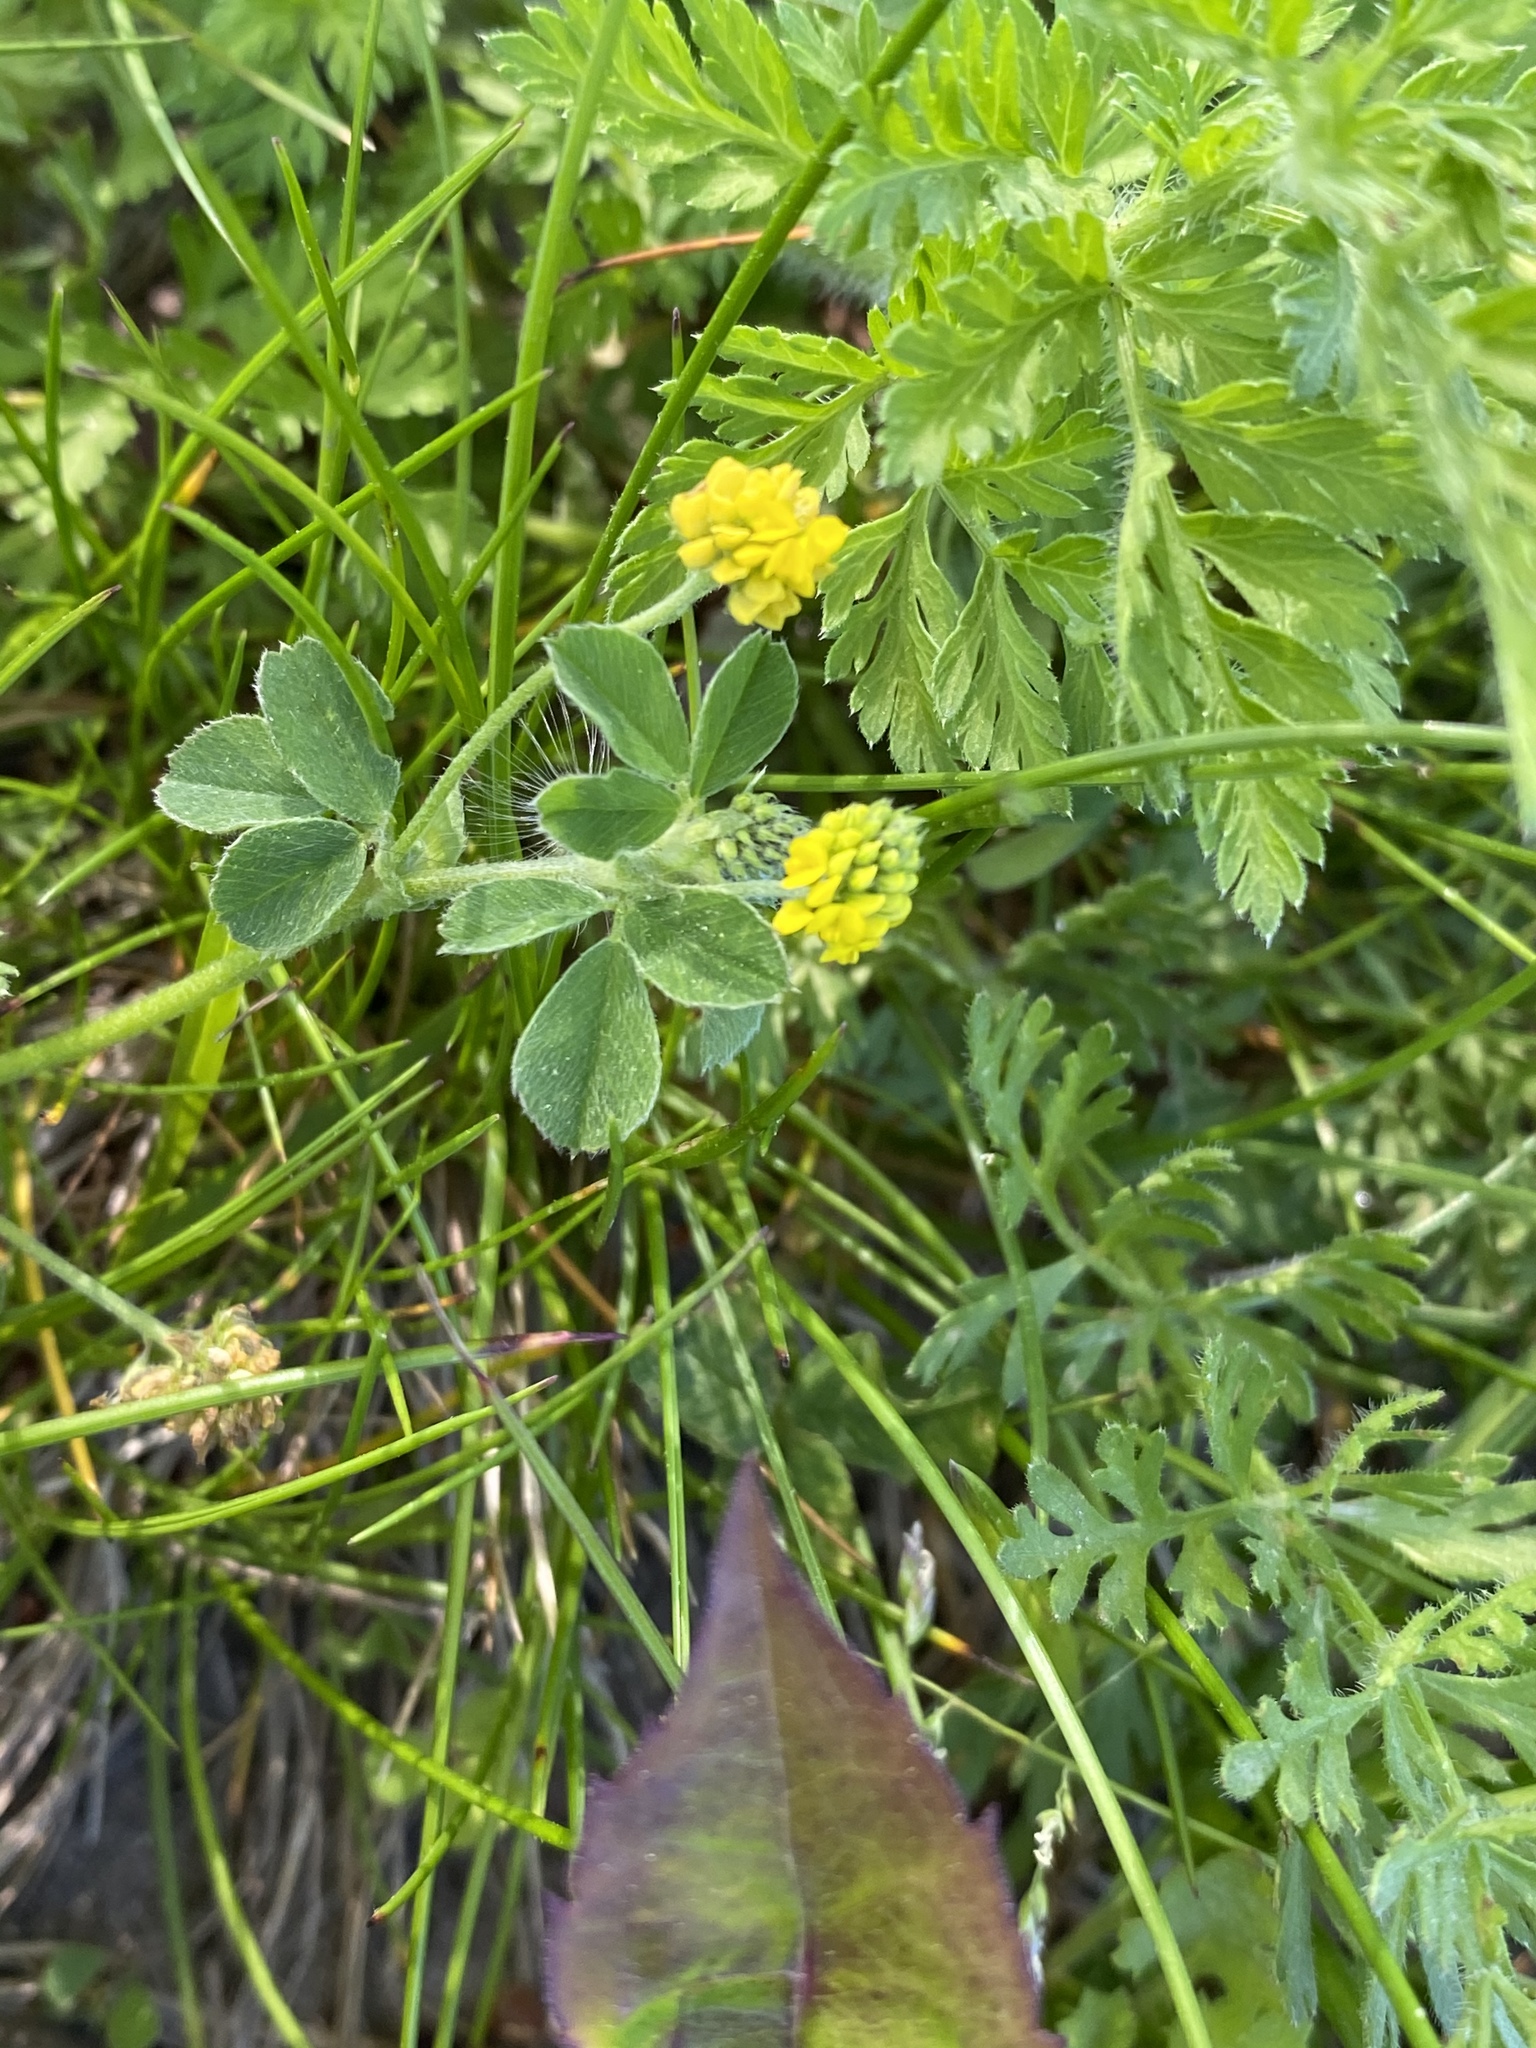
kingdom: Plantae
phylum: Tracheophyta
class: Magnoliopsida
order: Fabales
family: Fabaceae
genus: Medicago
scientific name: Medicago lupulina
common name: Black medick
